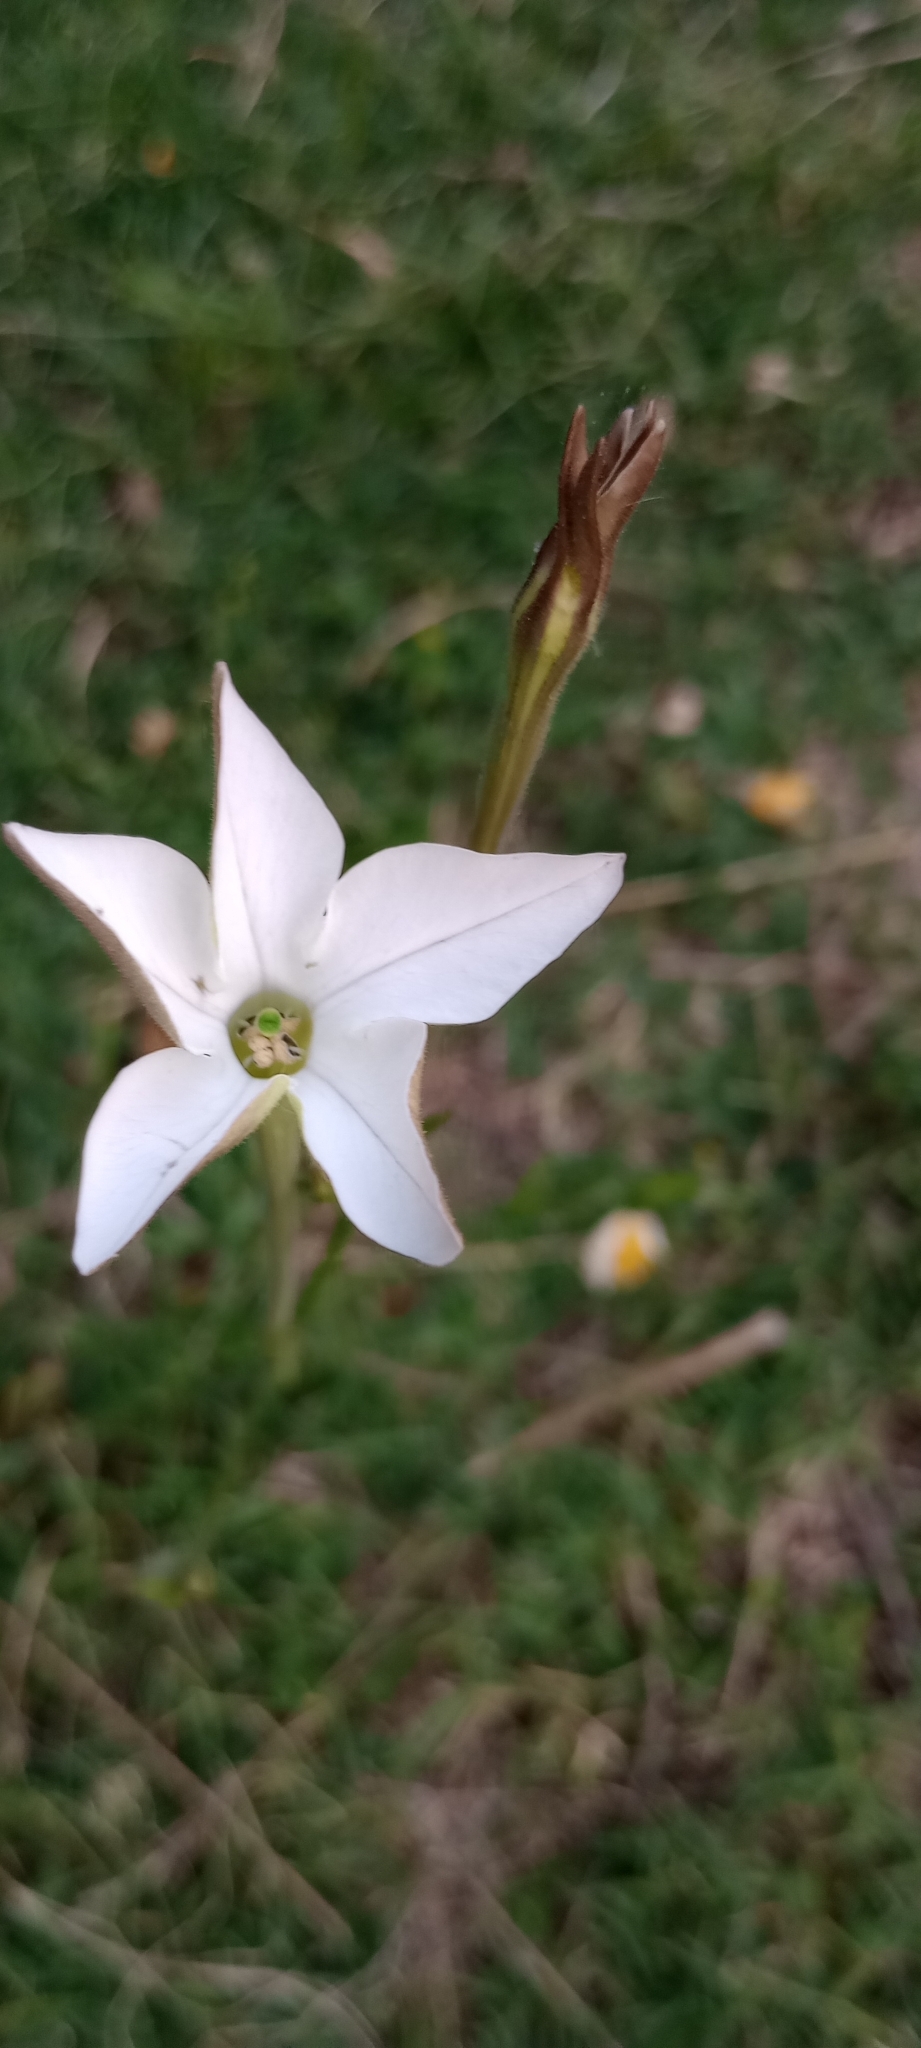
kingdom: Plantae
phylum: Tracheophyta
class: Magnoliopsida
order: Solanales
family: Solanaceae
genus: Nicotiana
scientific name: Nicotiana longiflora
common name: Long-flowered tobacco
